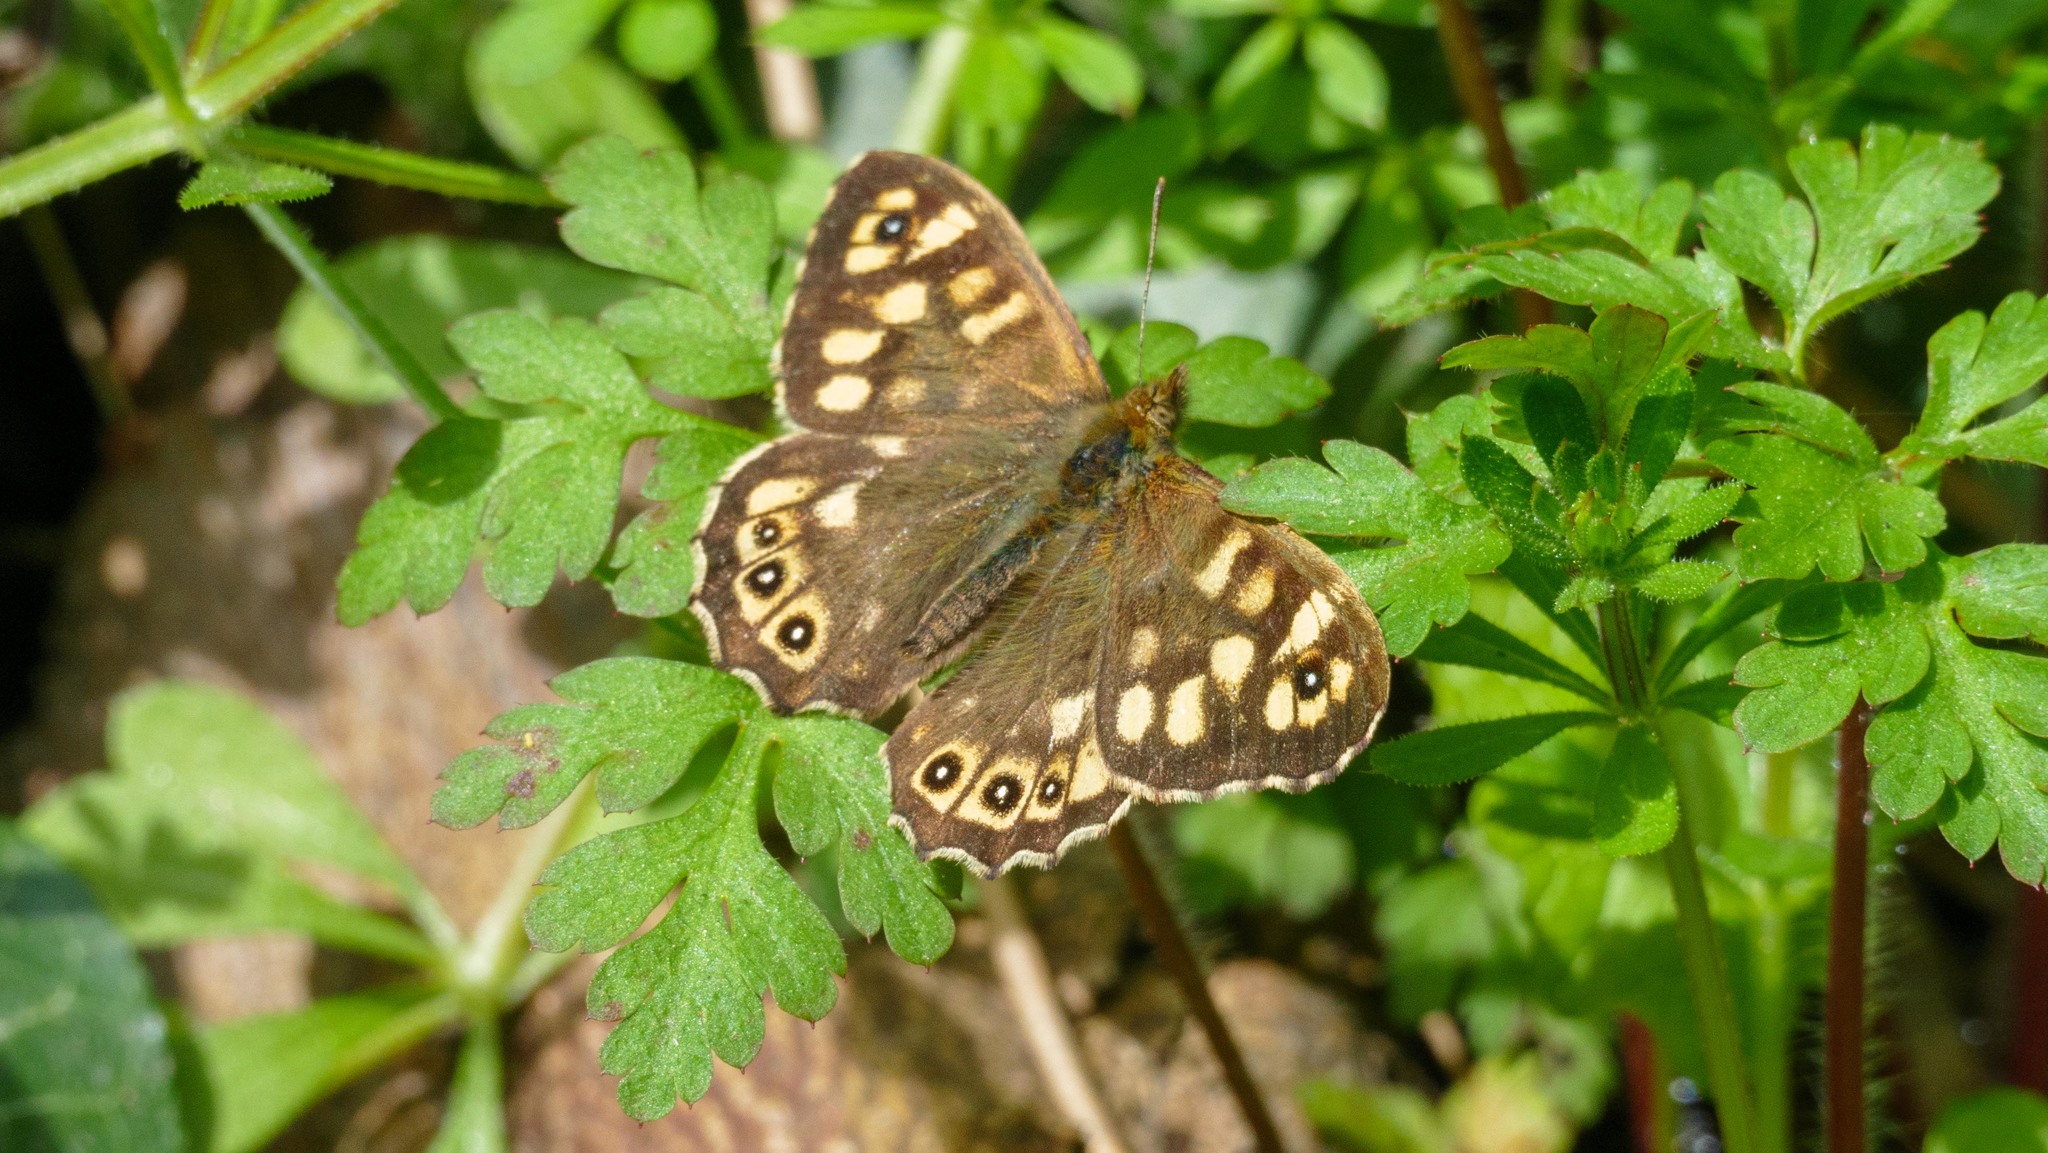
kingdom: Animalia
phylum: Arthropoda
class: Insecta
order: Lepidoptera
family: Nymphalidae
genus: Pararge
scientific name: Pararge aegeria
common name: Speckled wood
